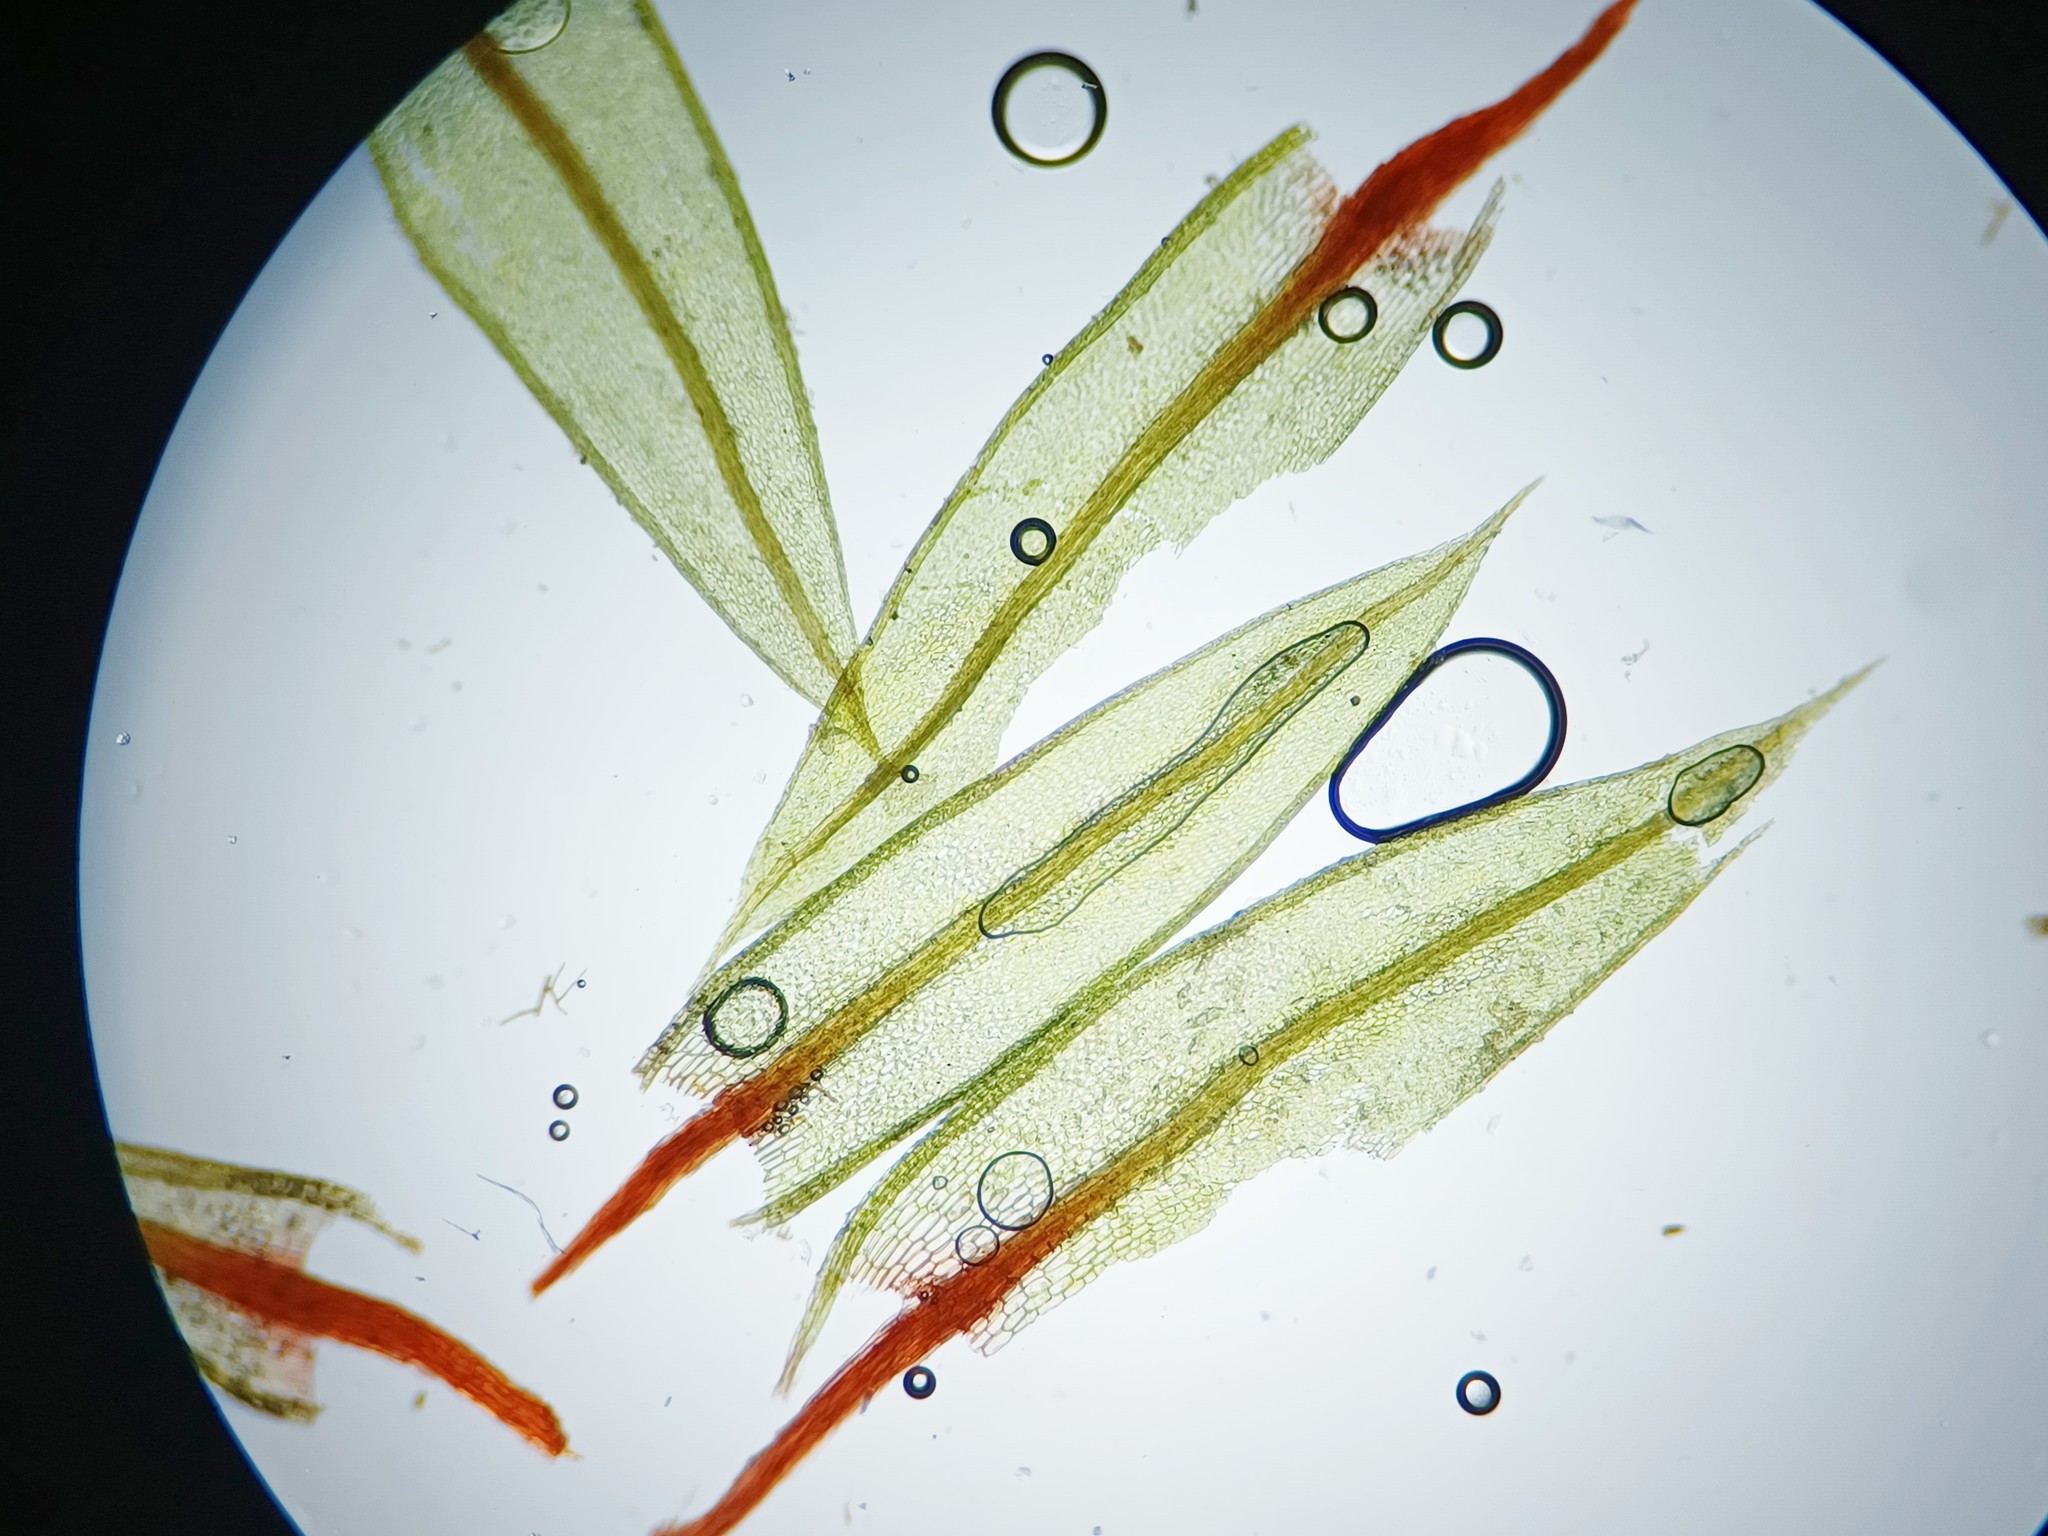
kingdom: Plantae
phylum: Bryophyta
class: Bryopsida
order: Bryales
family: Bryaceae
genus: Ptychostomum
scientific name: Ptychostomum pseudotriquetrum
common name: Long-leaved thread moss
